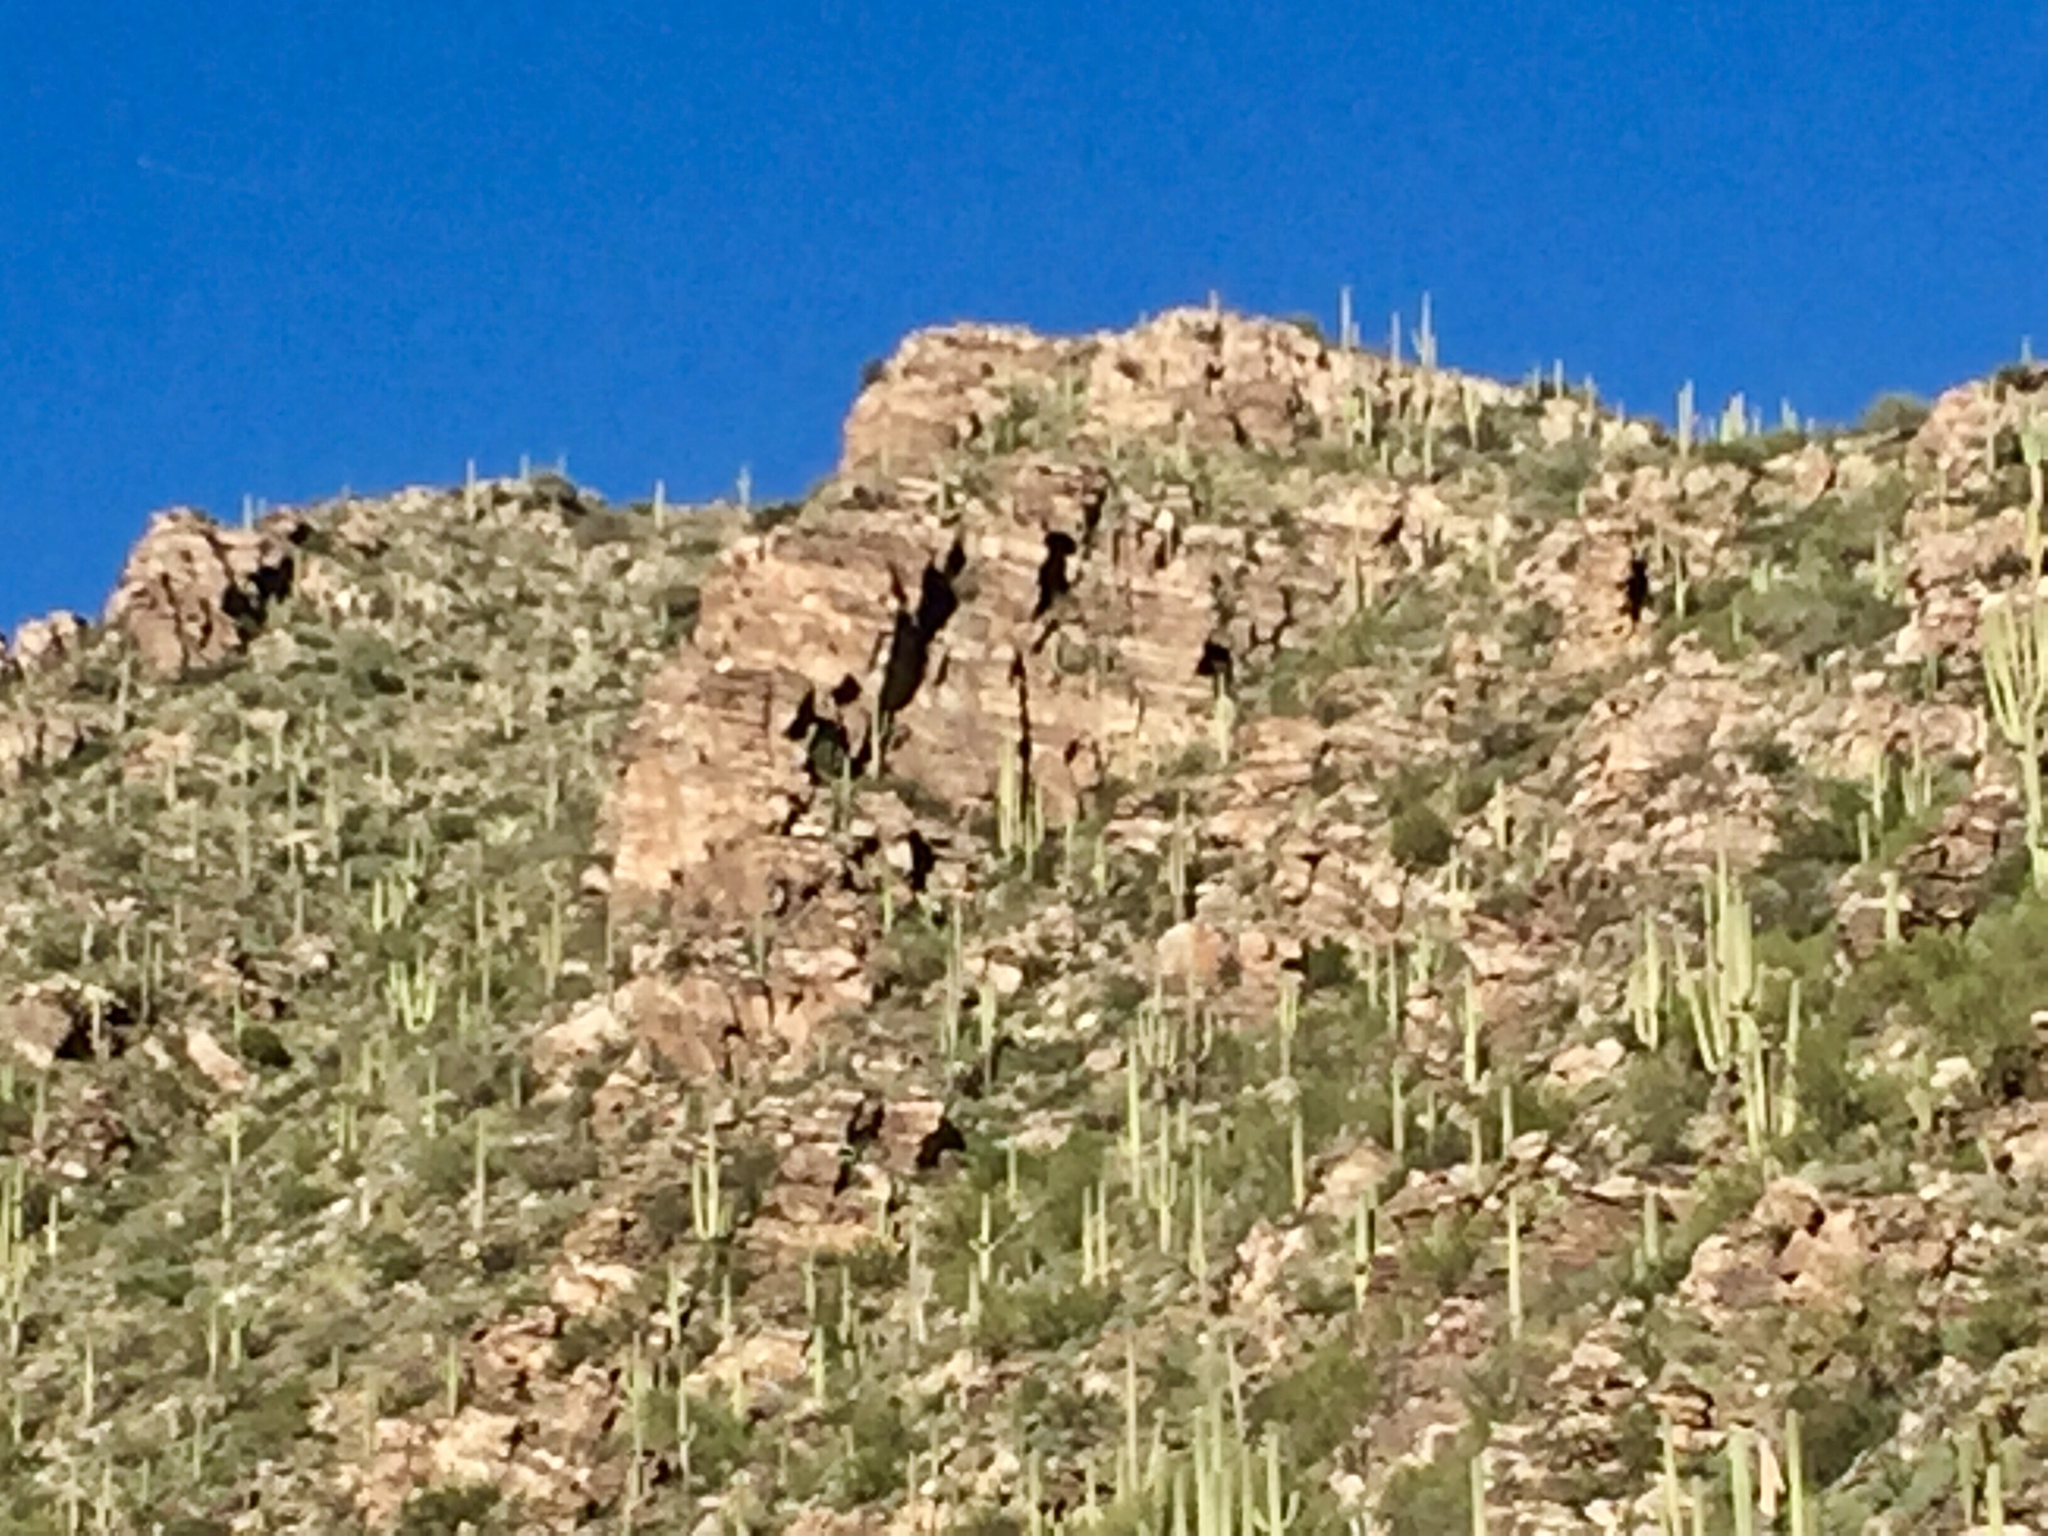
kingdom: Plantae
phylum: Tracheophyta
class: Magnoliopsida
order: Caryophyllales
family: Cactaceae
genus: Carnegiea
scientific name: Carnegiea gigantea
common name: Saguaro
